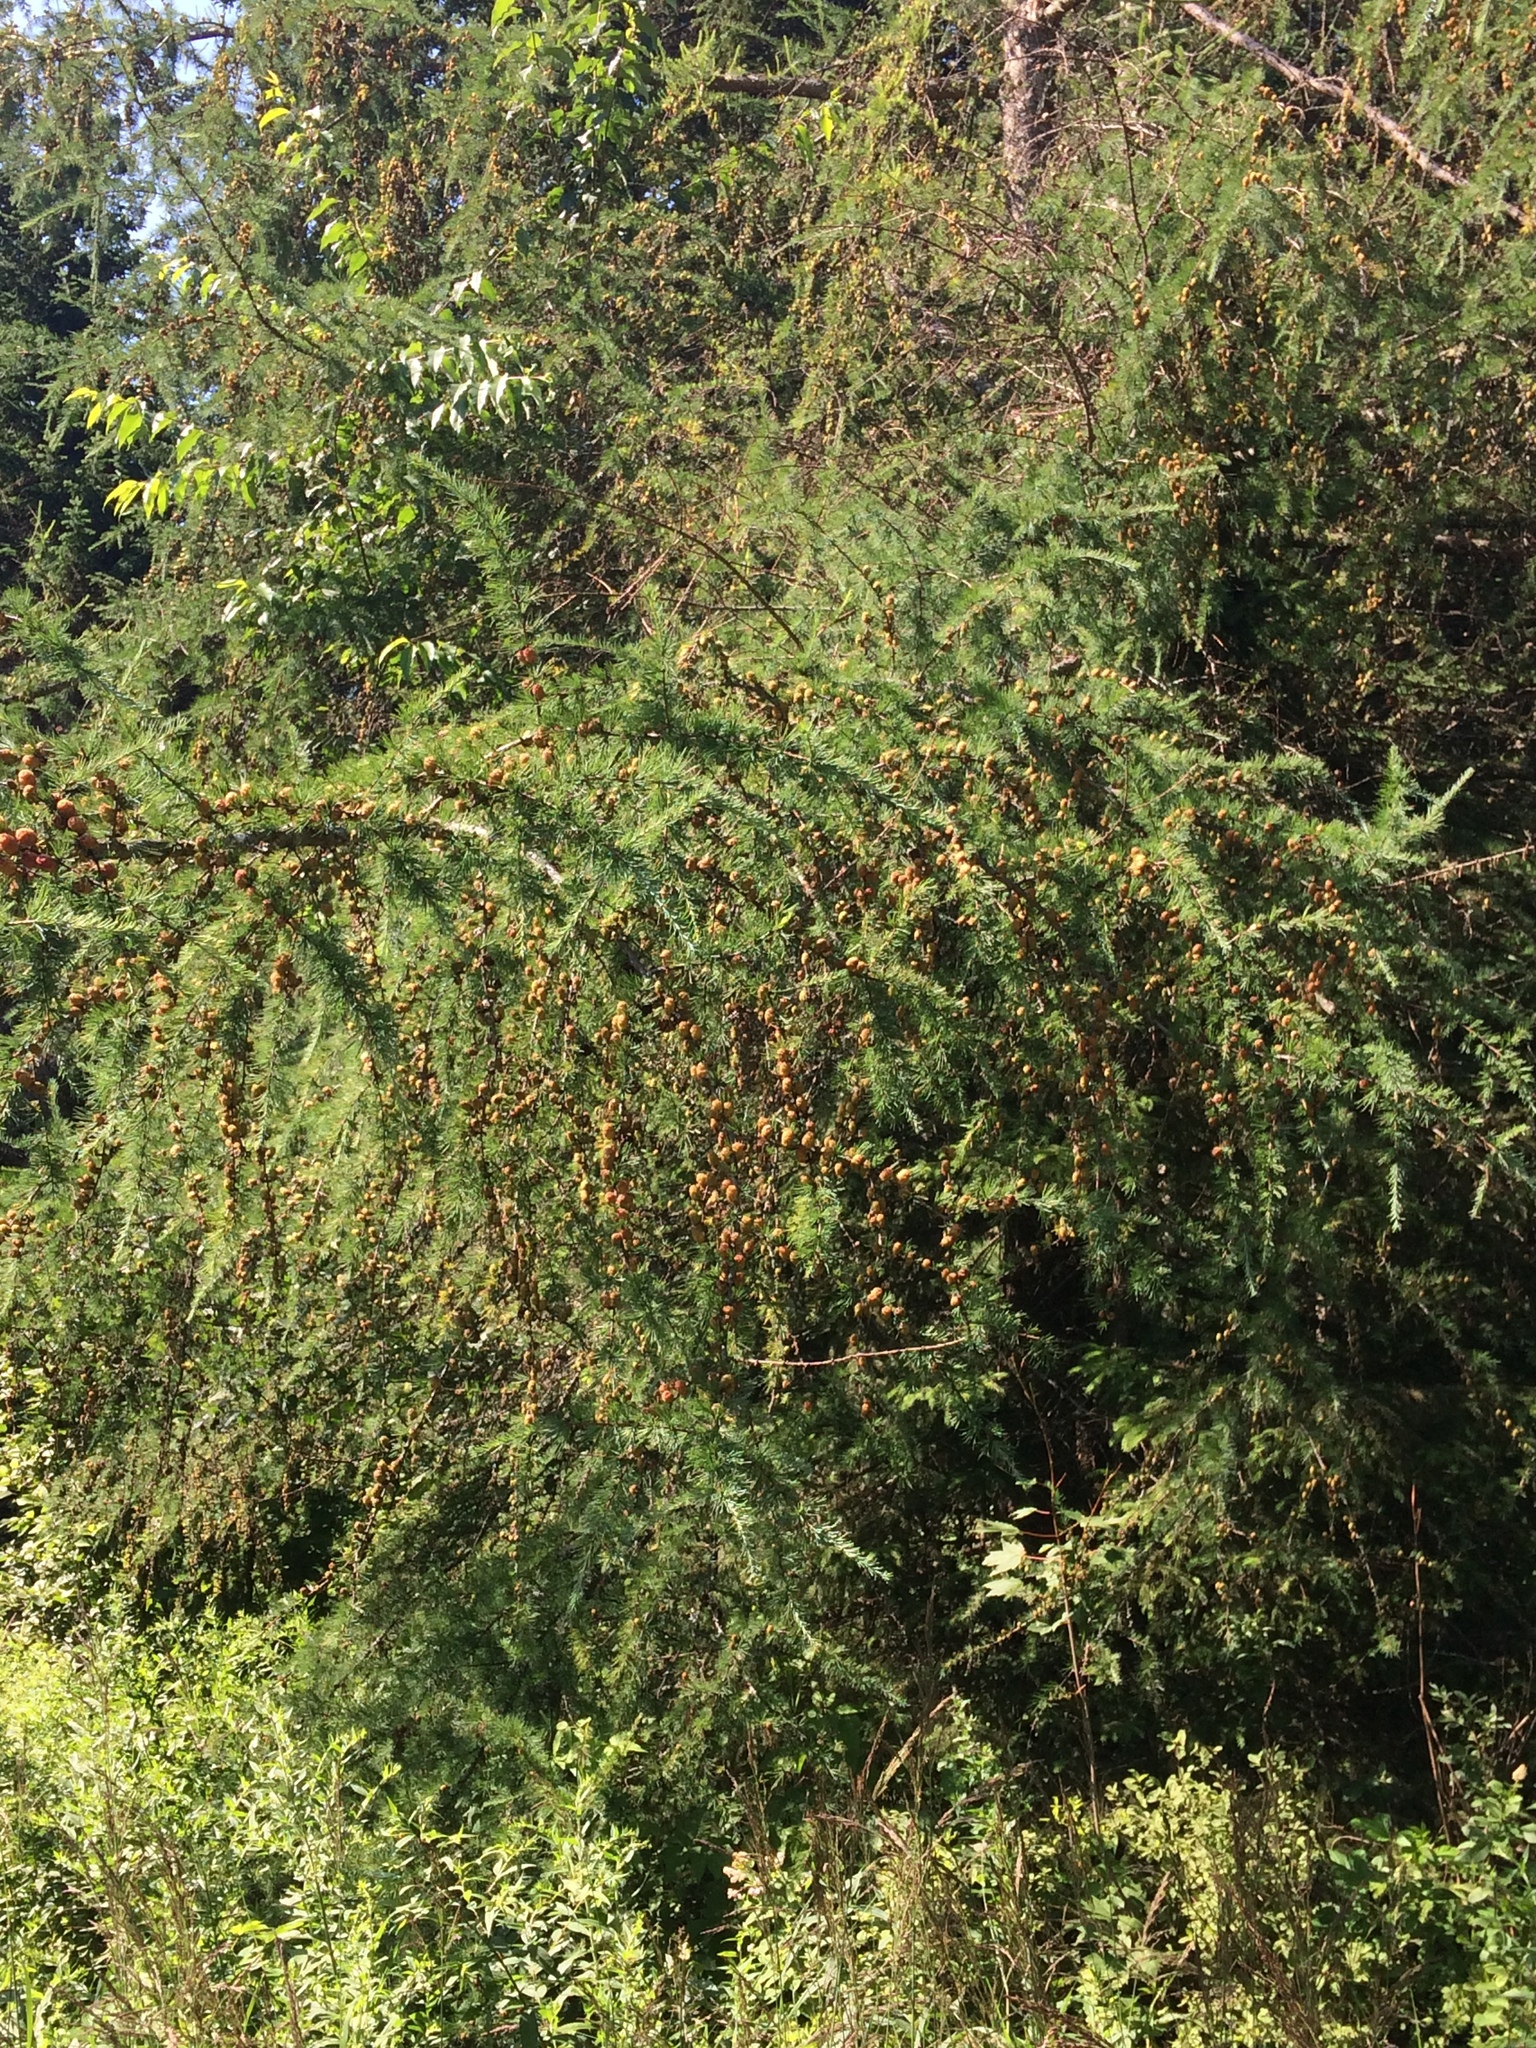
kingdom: Plantae
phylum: Tracheophyta
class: Pinopsida
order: Pinales
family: Pinaceae
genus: Larix
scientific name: Larix laricina
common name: American larch
